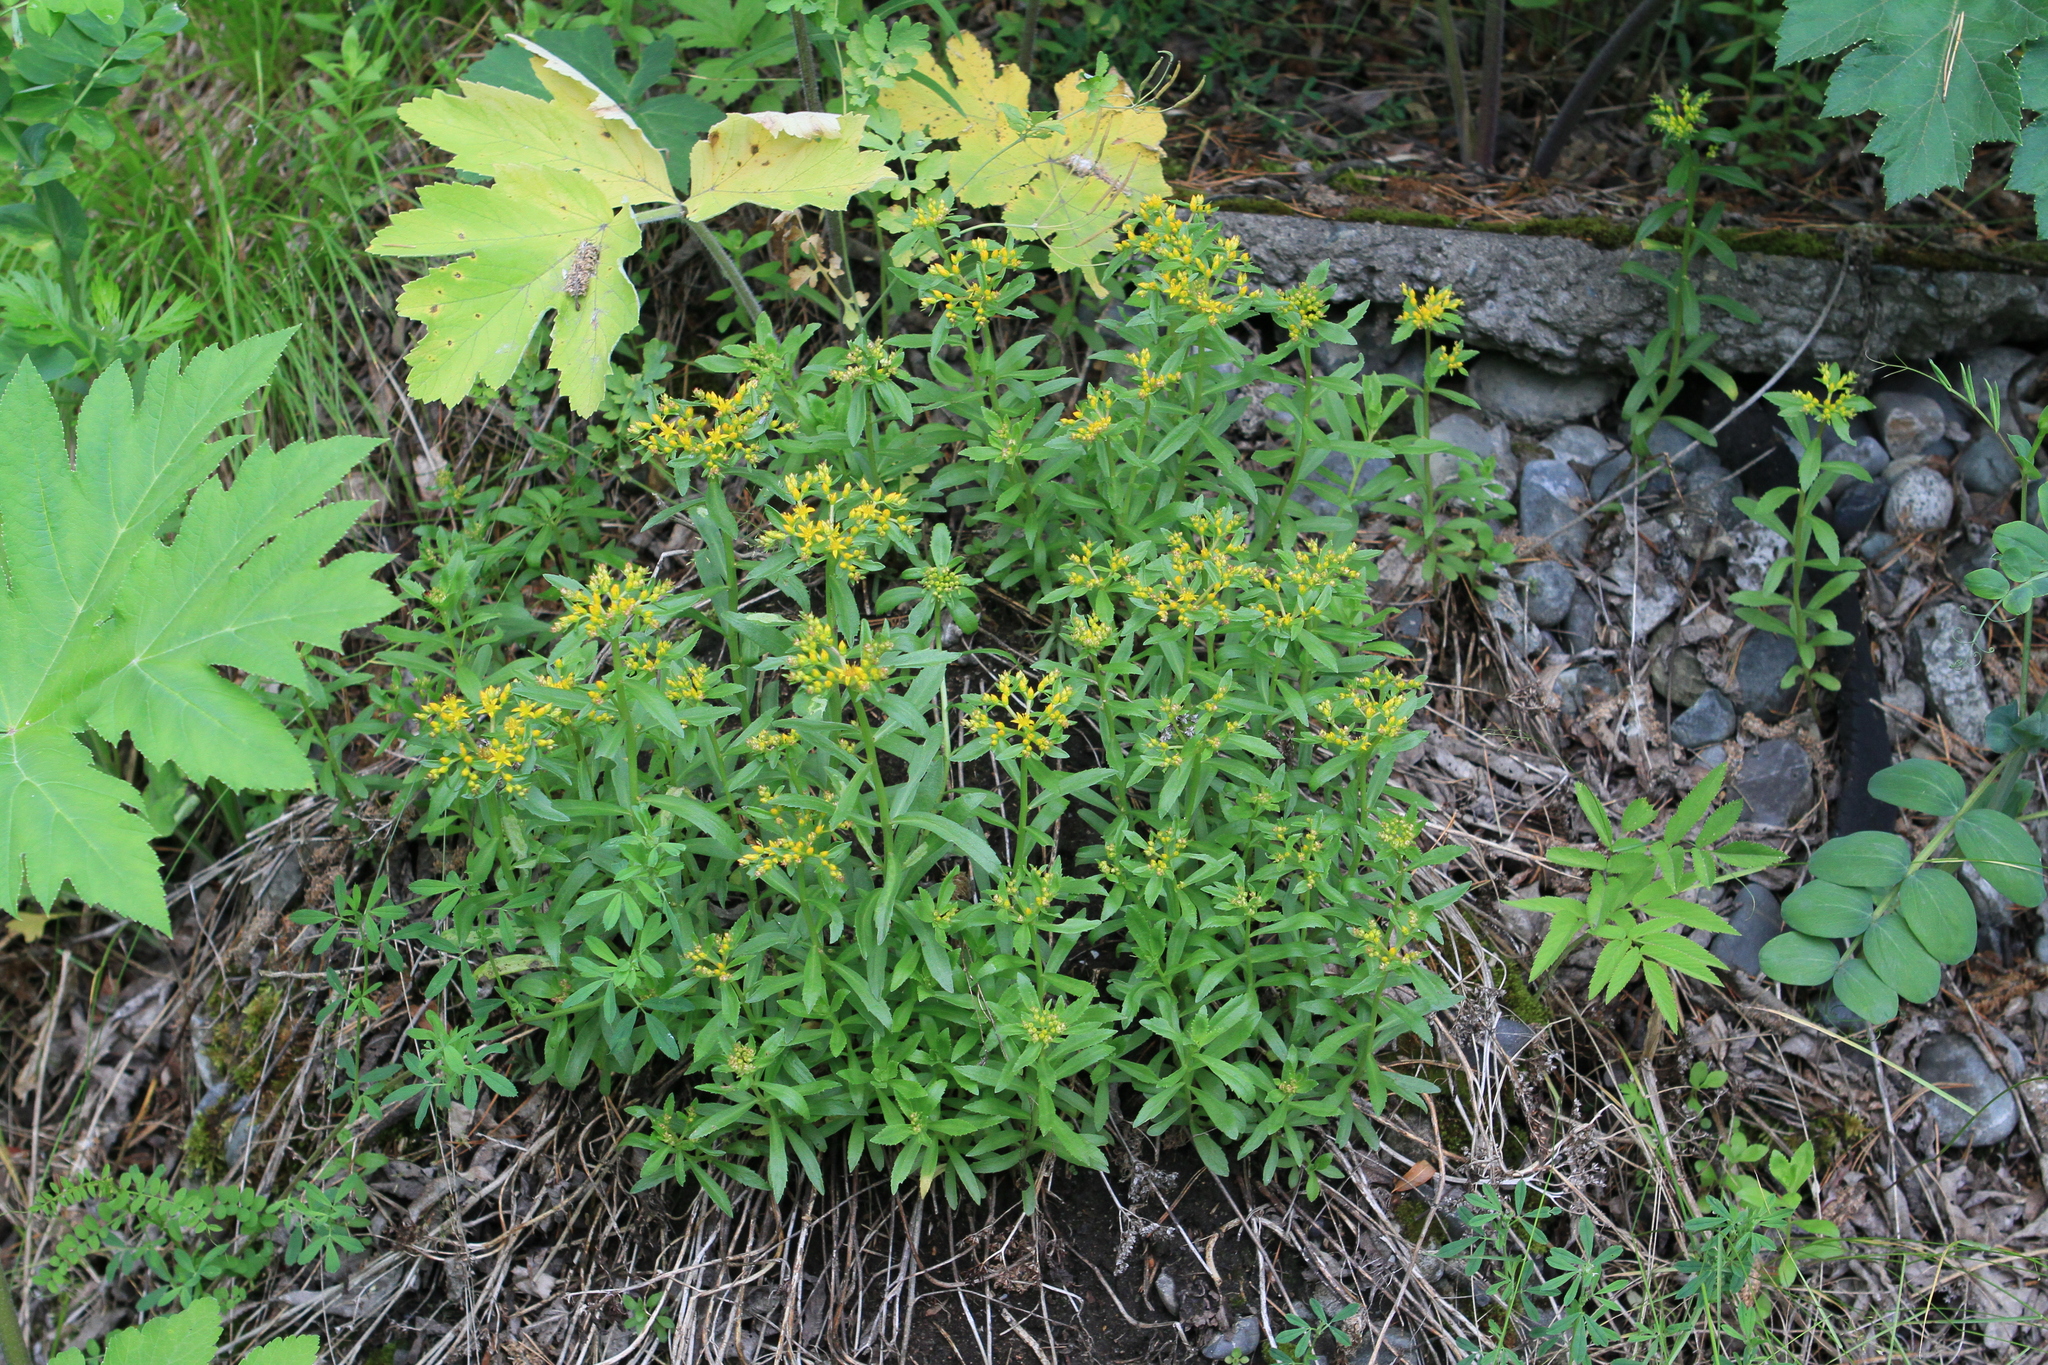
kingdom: Plantae
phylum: Tracheophyta
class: Magnoliopsida
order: Saxifragales
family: Crassulaceae
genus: Phedimus
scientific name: Phedimus aizoon
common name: Orpin aizoon
